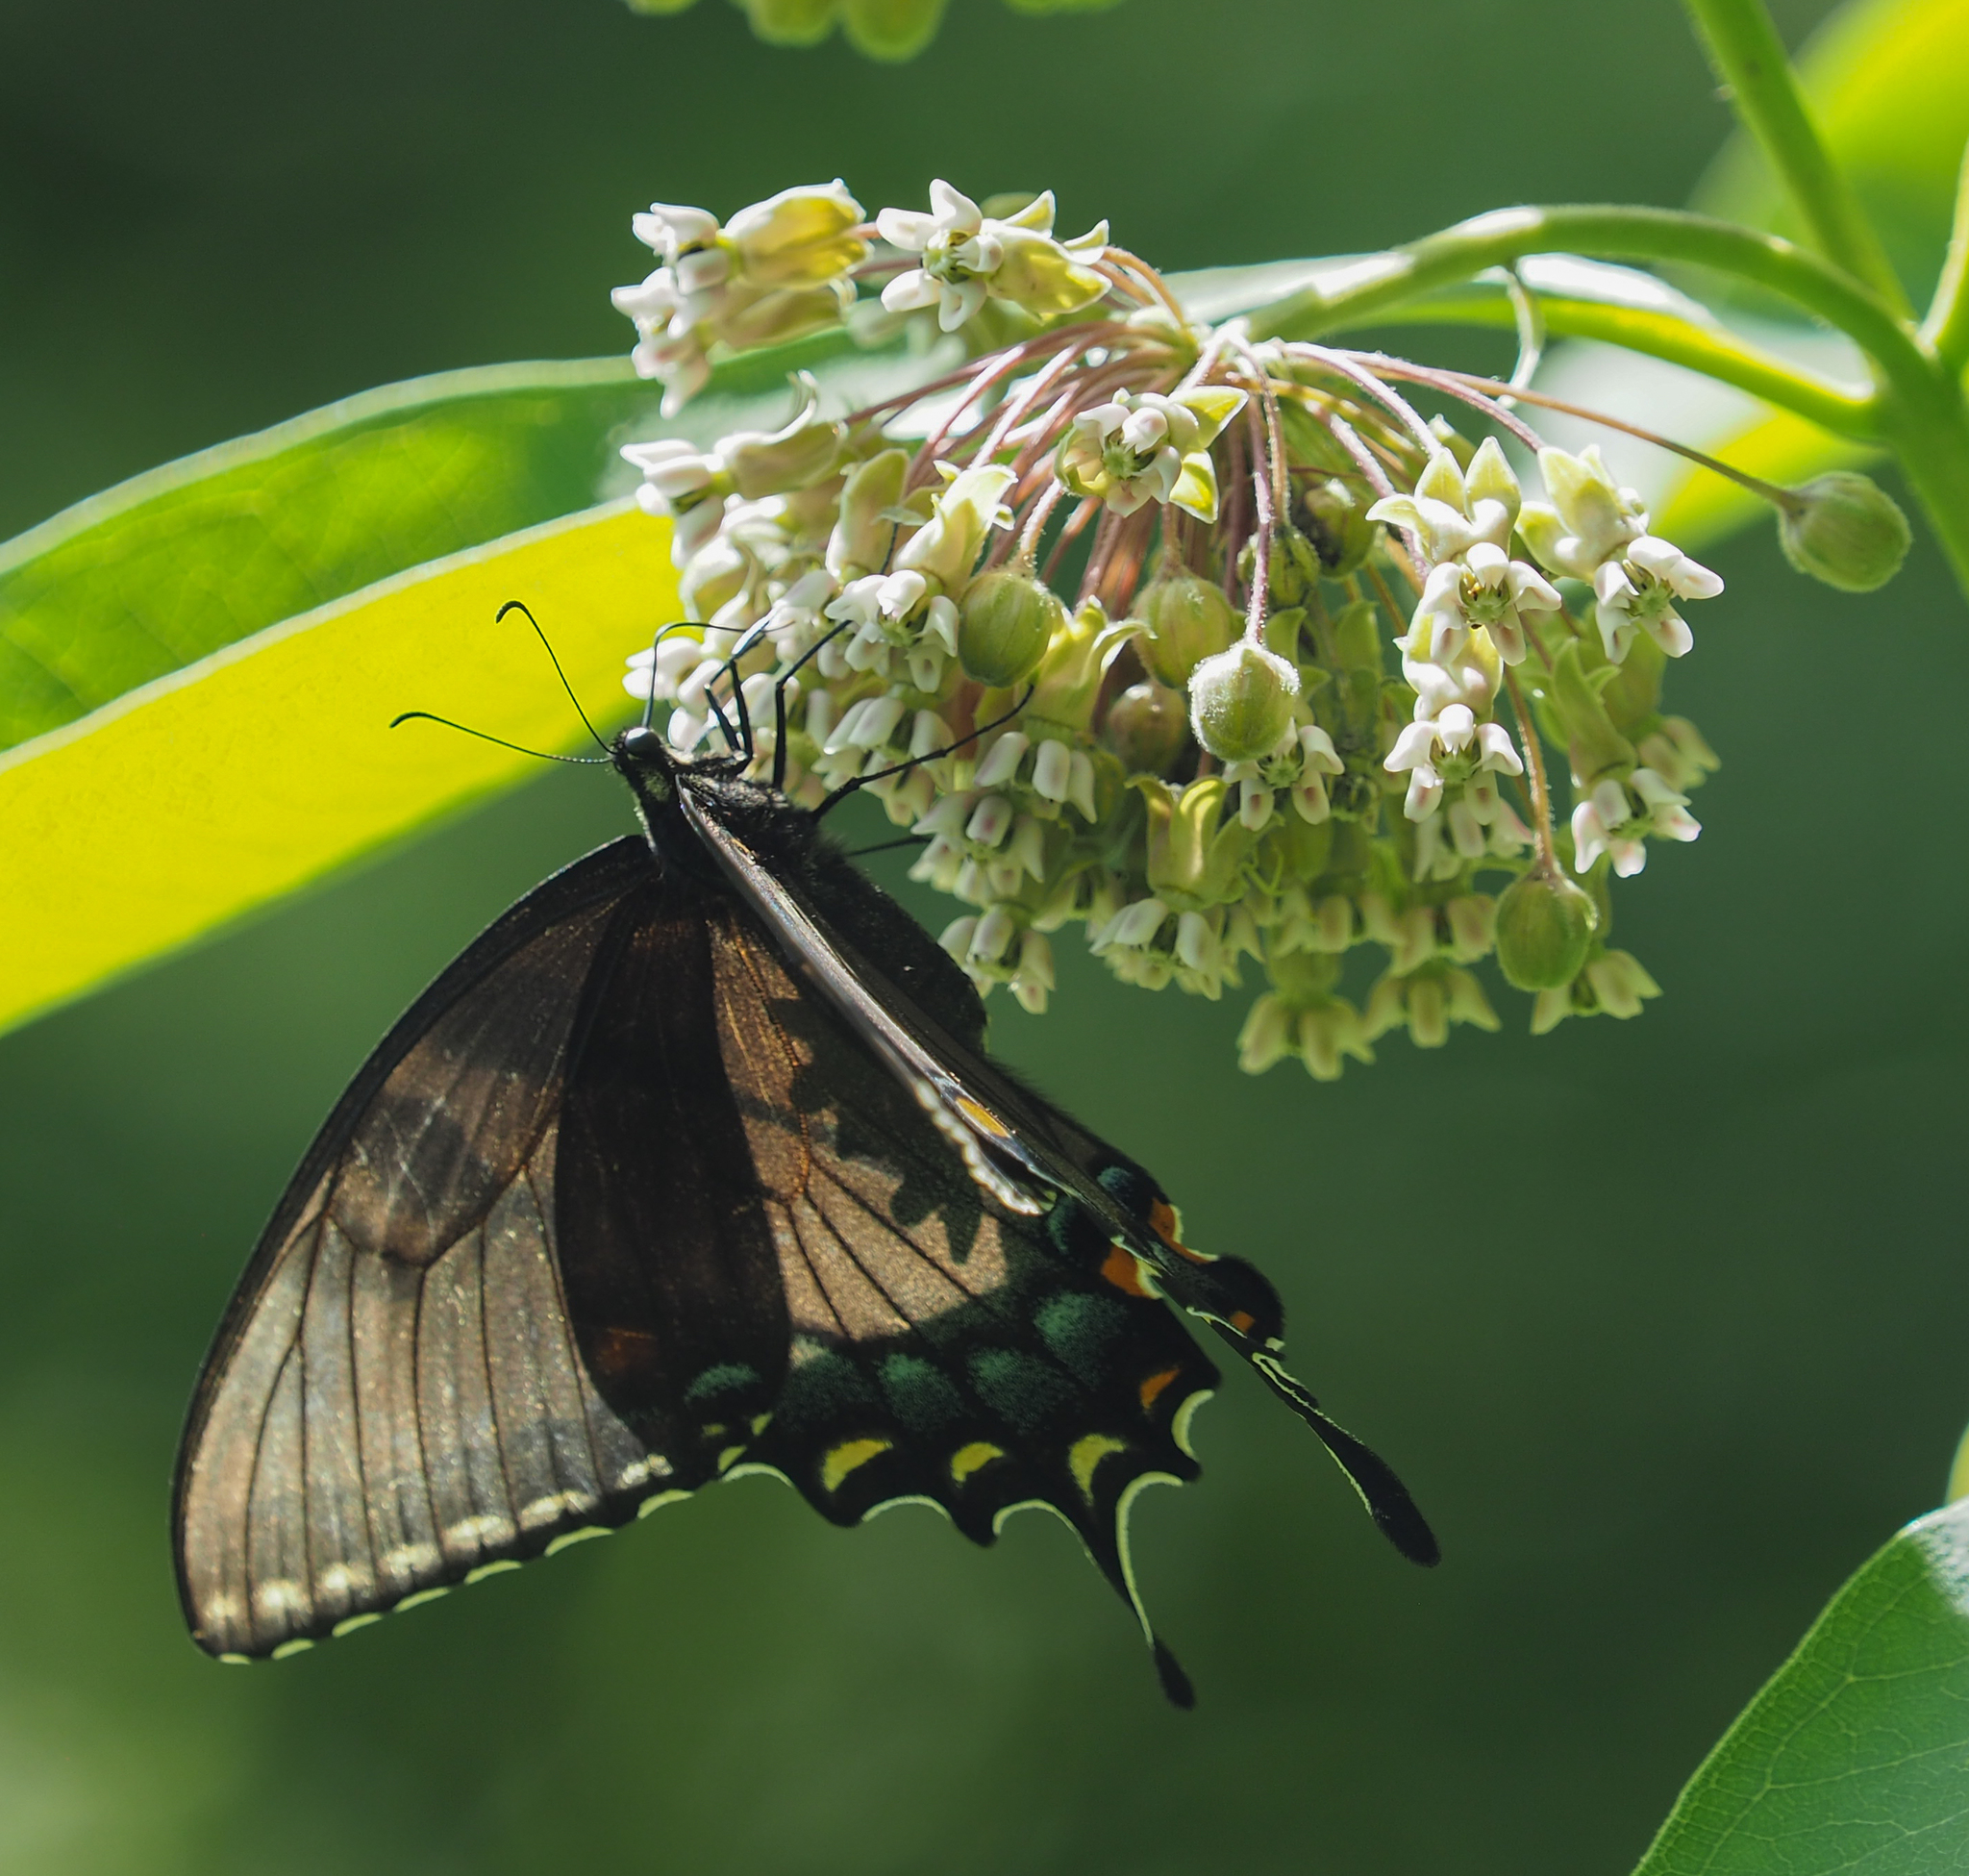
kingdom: Animalia
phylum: Arthropoda
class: Insecta
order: Lepidoptera
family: Papilionidae
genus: Papilio
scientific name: Papilio glaucus
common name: Tiger swallowtail
